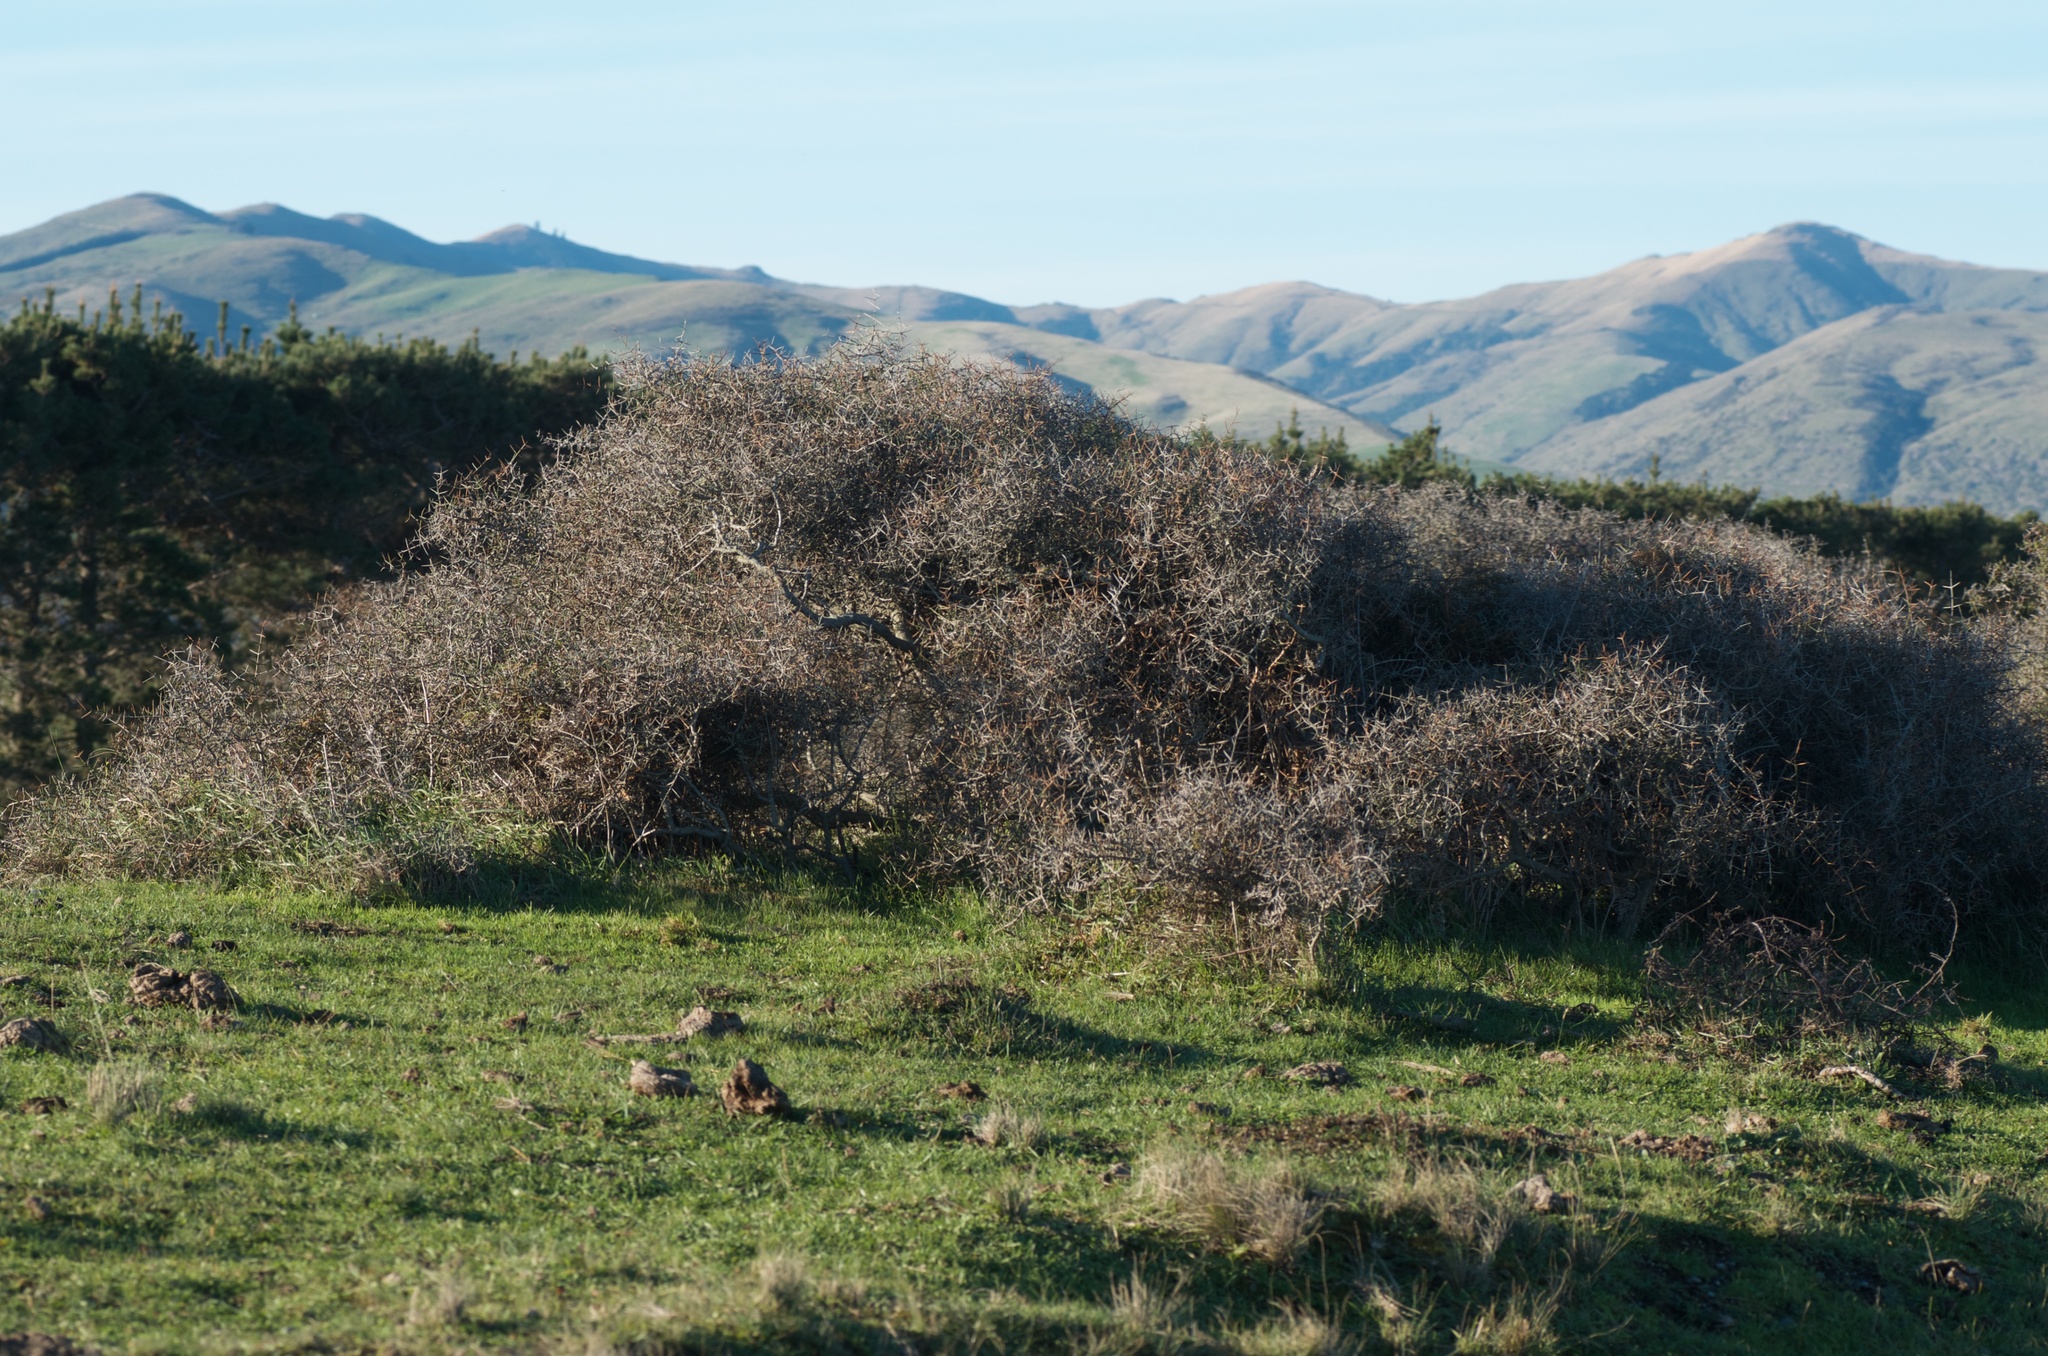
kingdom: Plantae
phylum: Tracheophyta
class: Magnoliopsida
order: Rosales
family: Rhamnaceae
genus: Discaria
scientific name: Discaria toumatou
